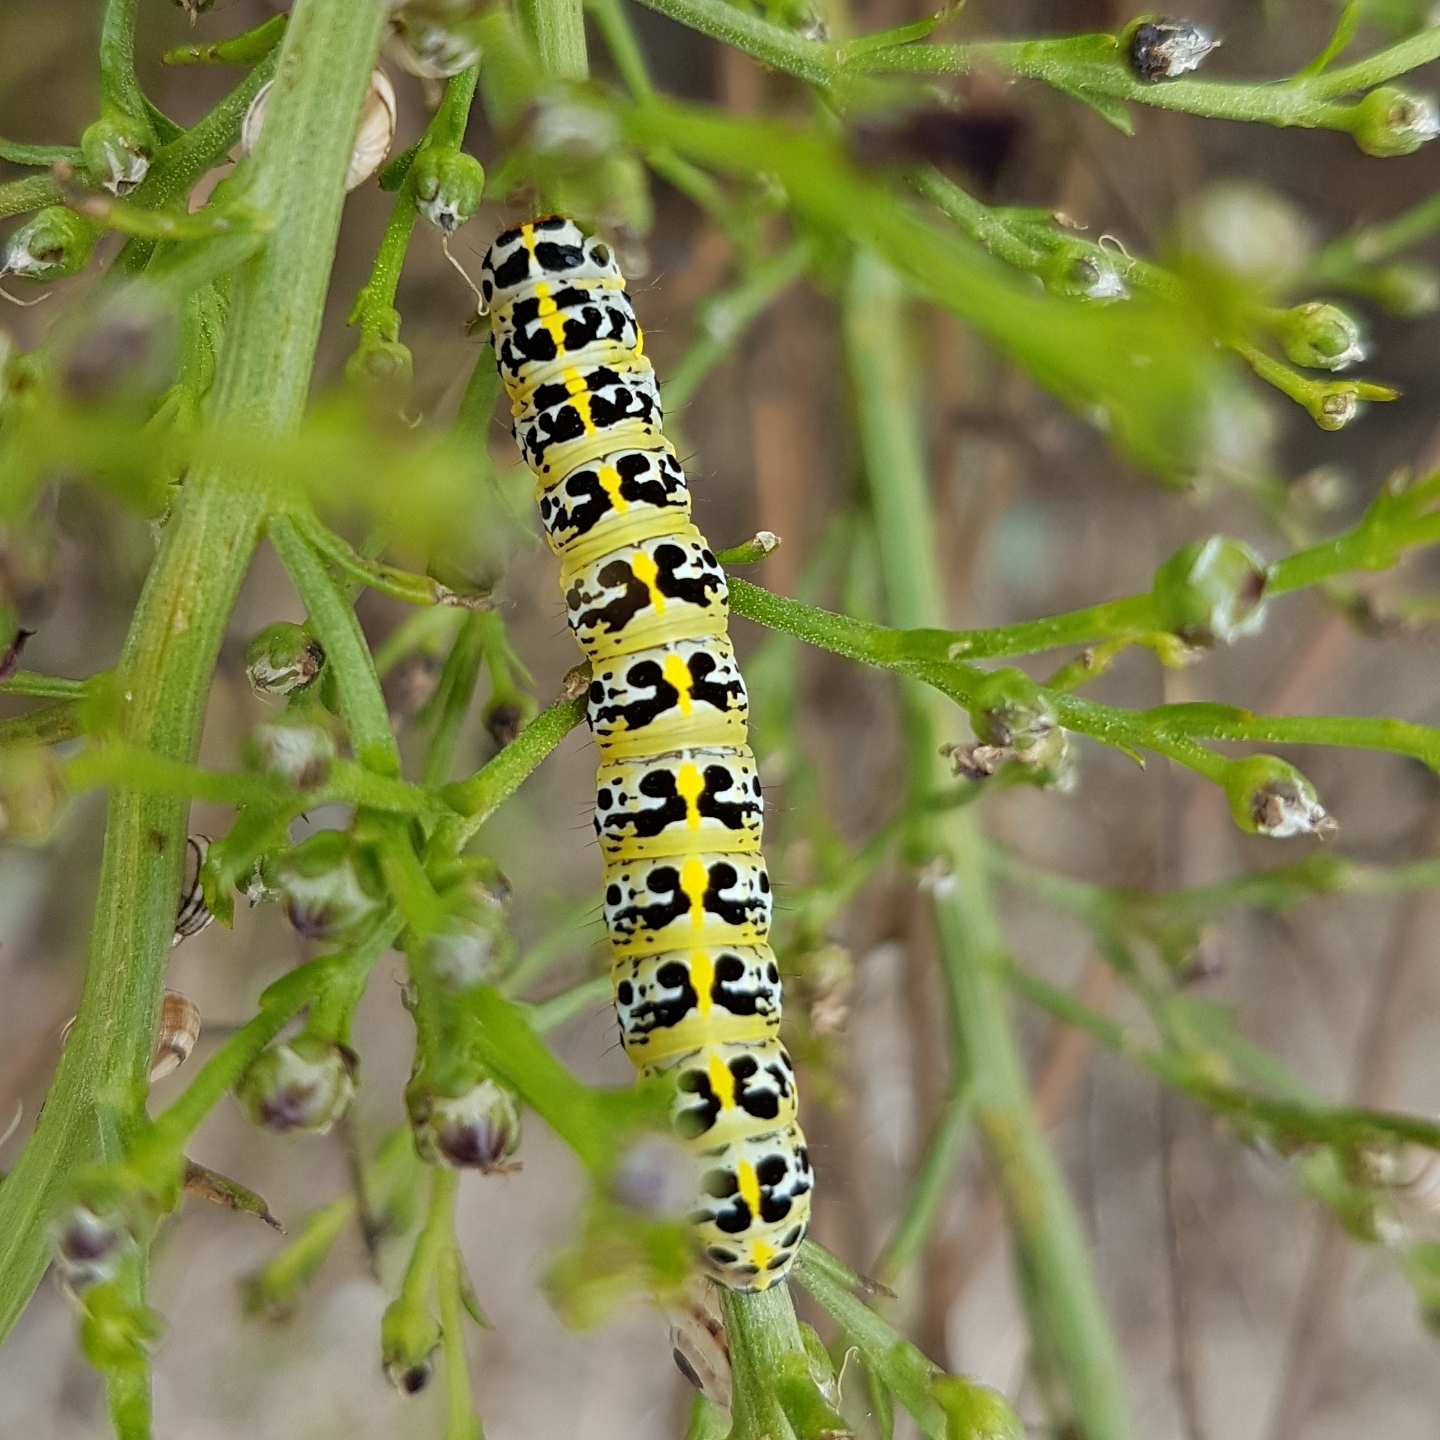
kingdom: Animalia
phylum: Arthropoda
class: Insecta
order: Lepidoptera
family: Noctuidae
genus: Cucullia
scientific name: Cucullia caninae
